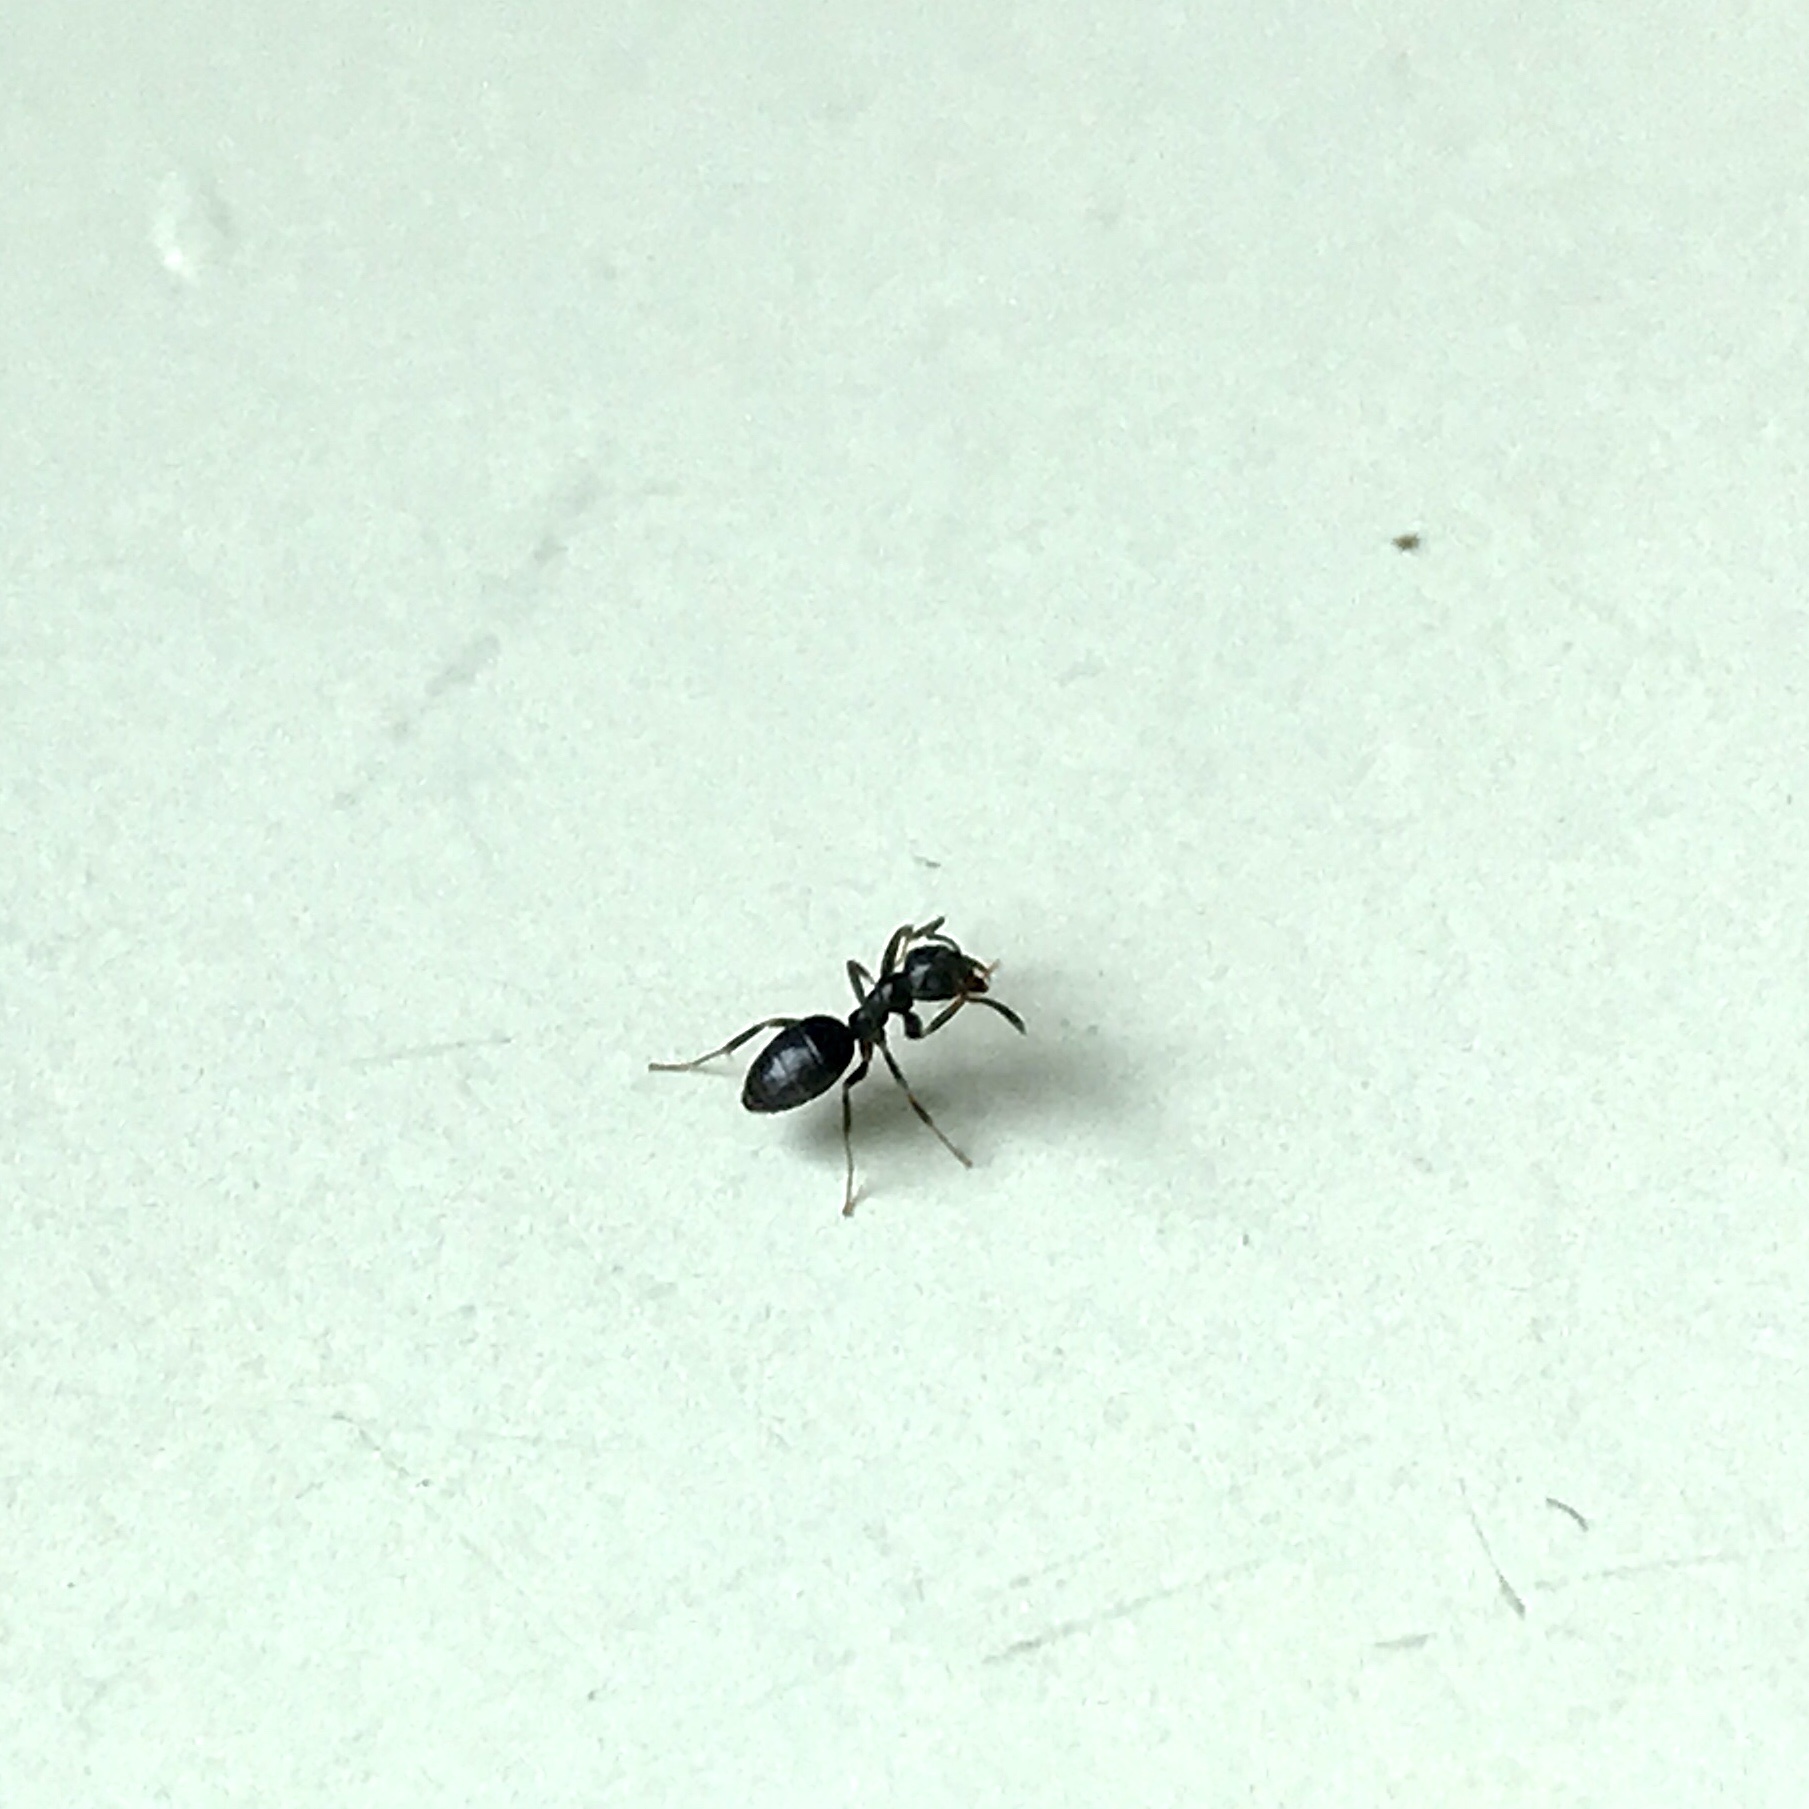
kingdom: Animalia
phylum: Arthropoda
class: Insecta
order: Hymenoptera
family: Formicidae
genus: Tapinoma
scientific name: Tapinoma sessile
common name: Odorous house ant
